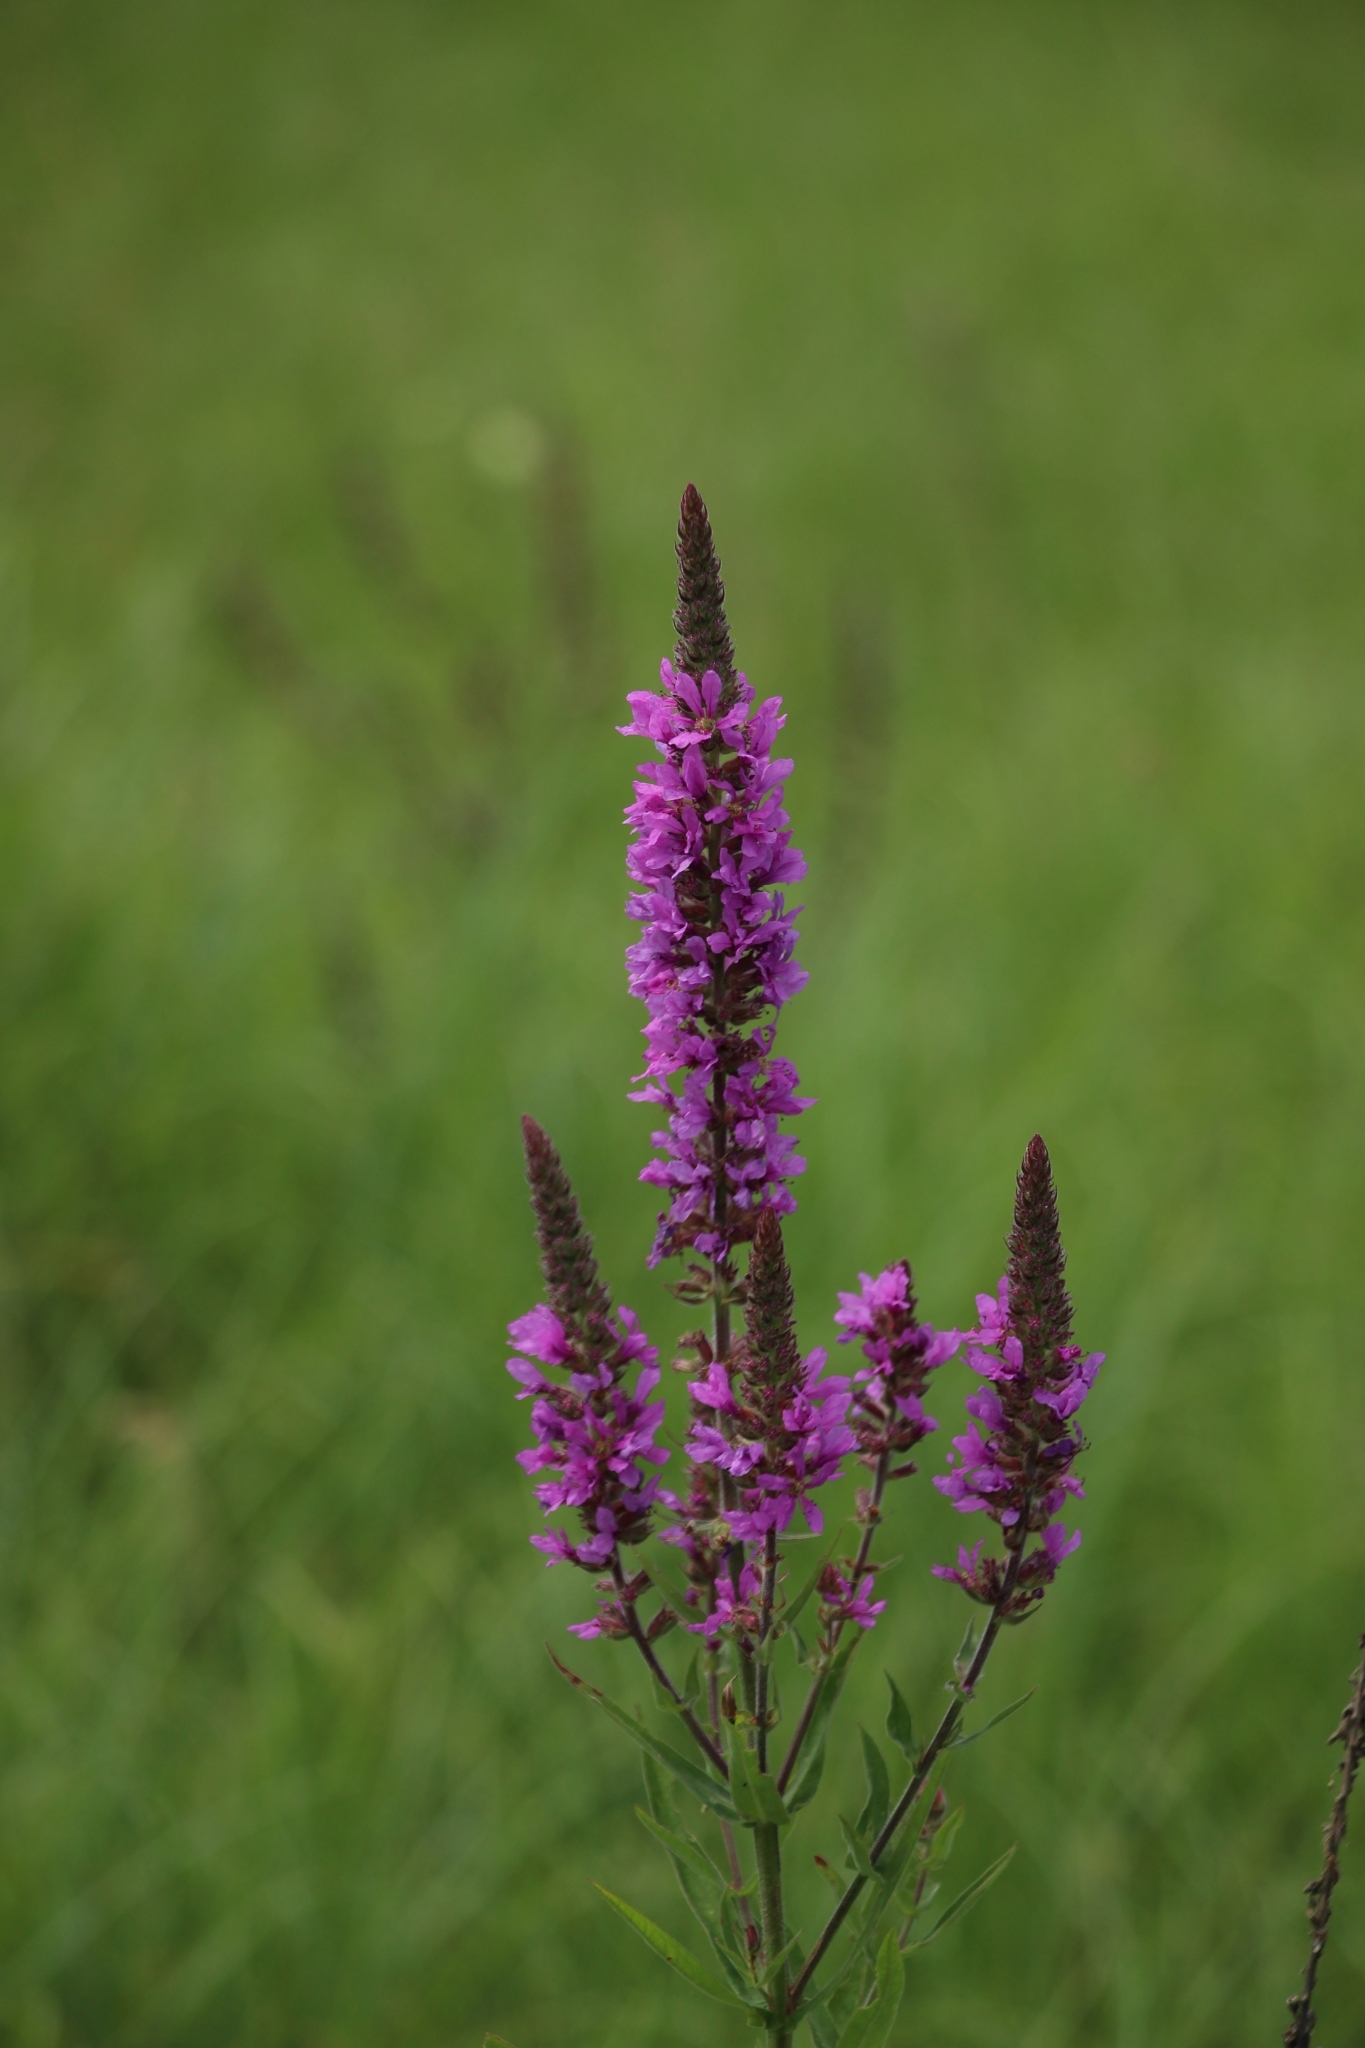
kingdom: Plantae
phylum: Tracheophyta
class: Magnoliopsida
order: Myrtales
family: Lythraceae
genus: Lythrum
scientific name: Lythrum salicaria
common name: Purple loosestrife
